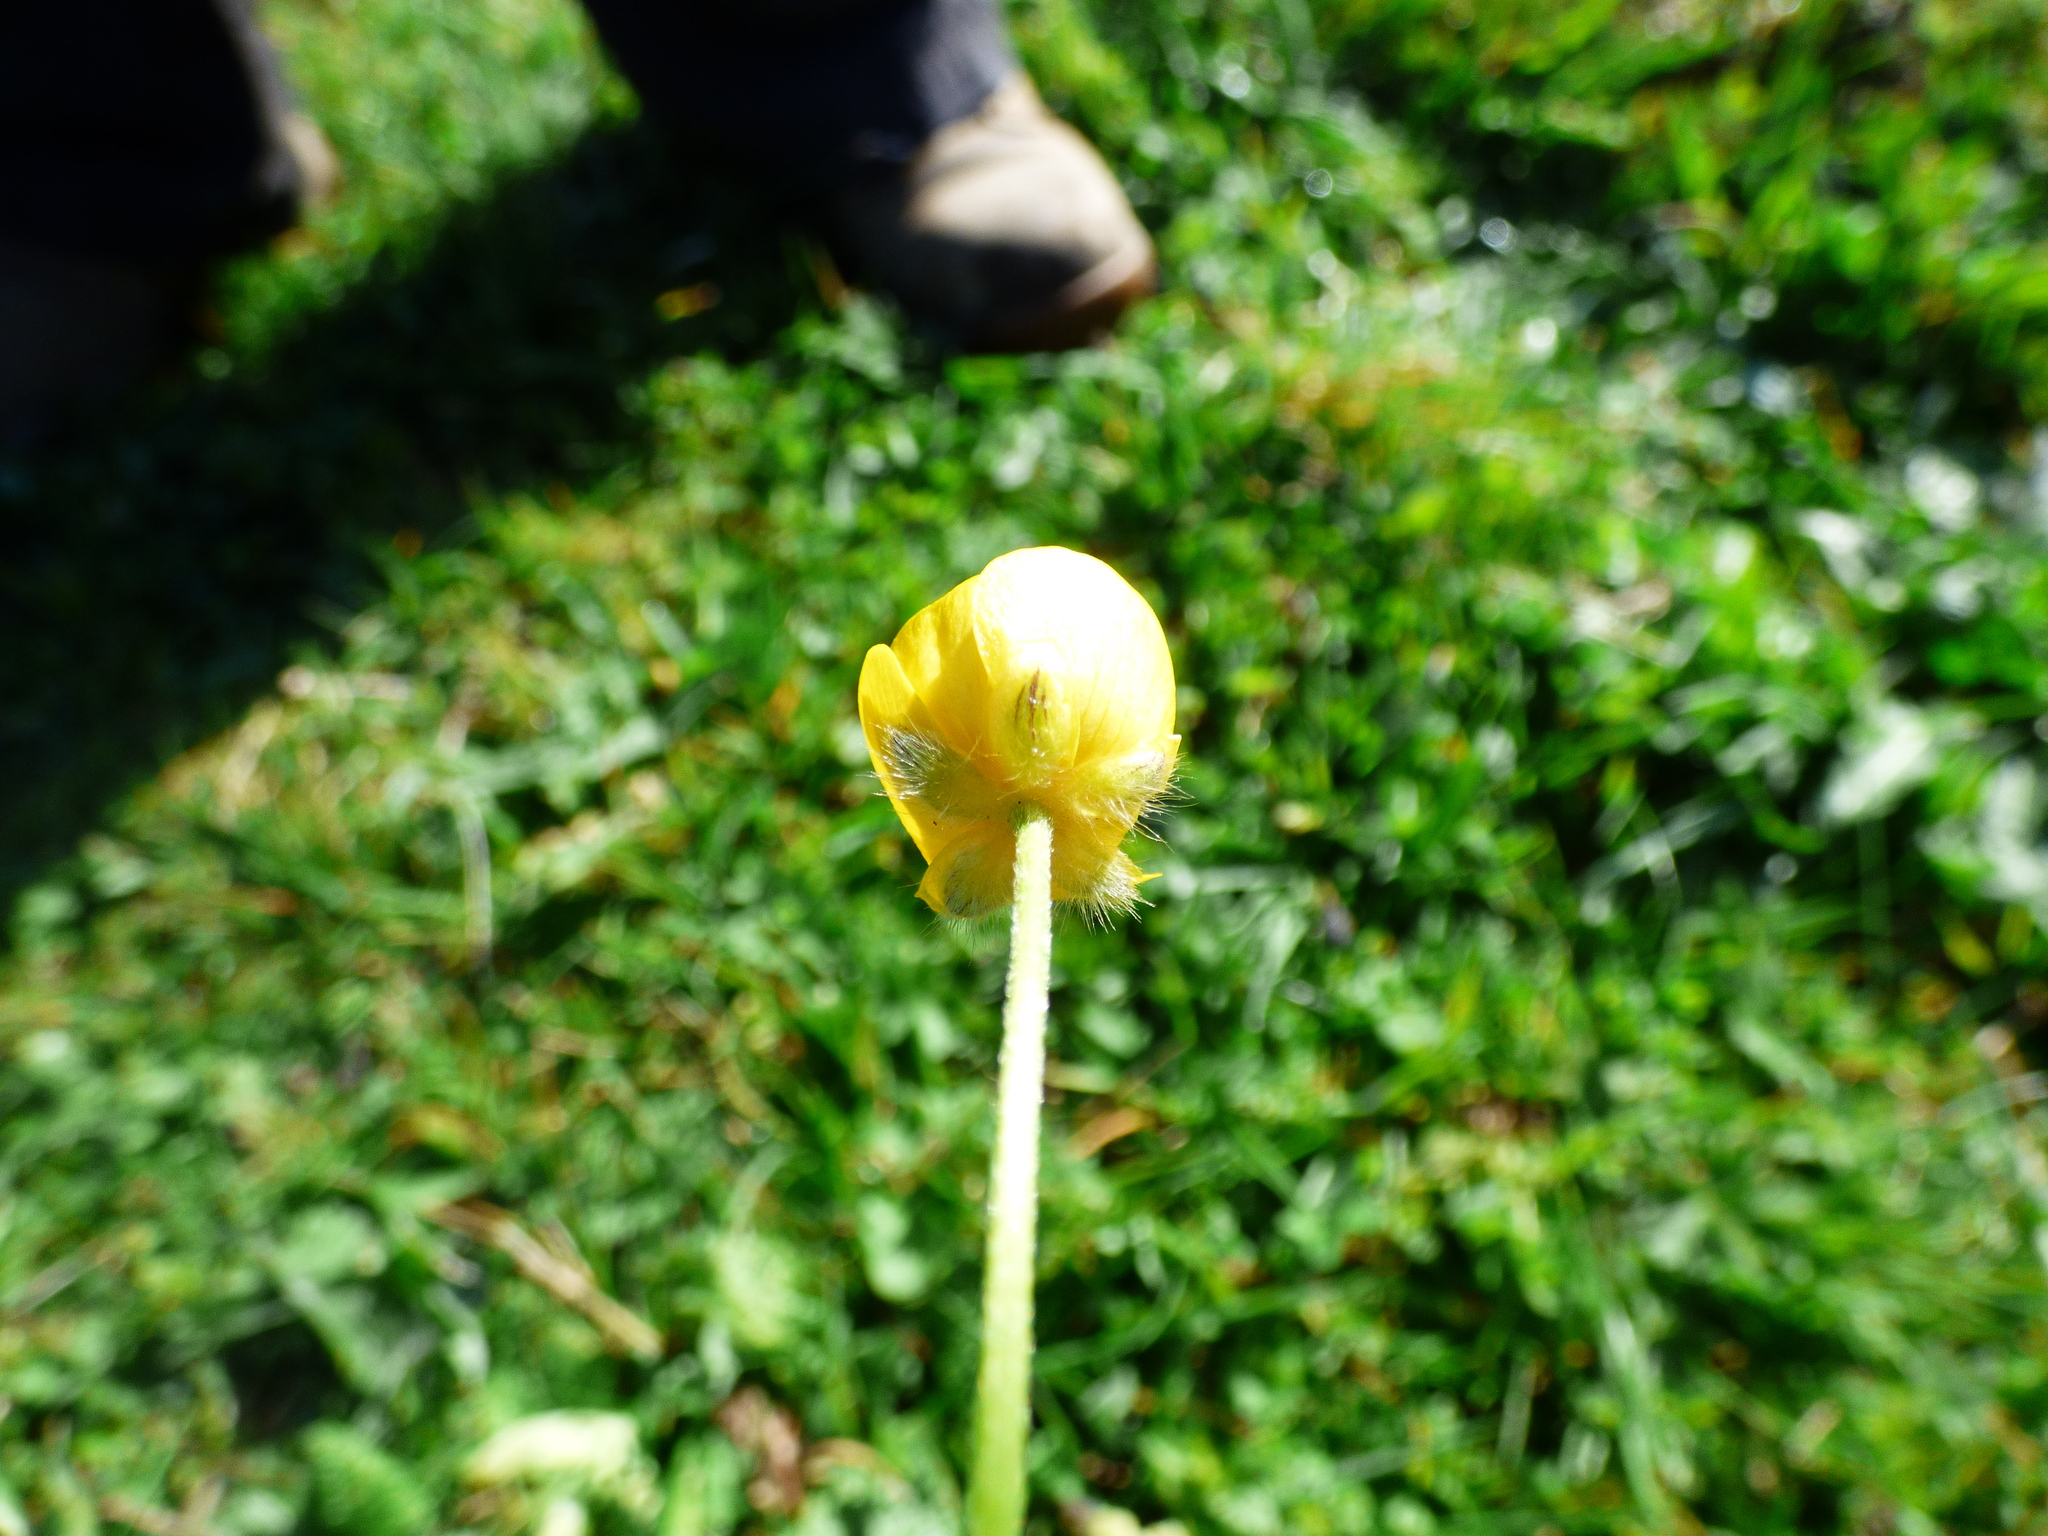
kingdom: Plantae
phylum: Tracheophyta
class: Magnoliopsida
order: Ranunculales
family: Ranunculaceae
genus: Ranunculus
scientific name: Ranunculus acris
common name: Meadow buttercup
